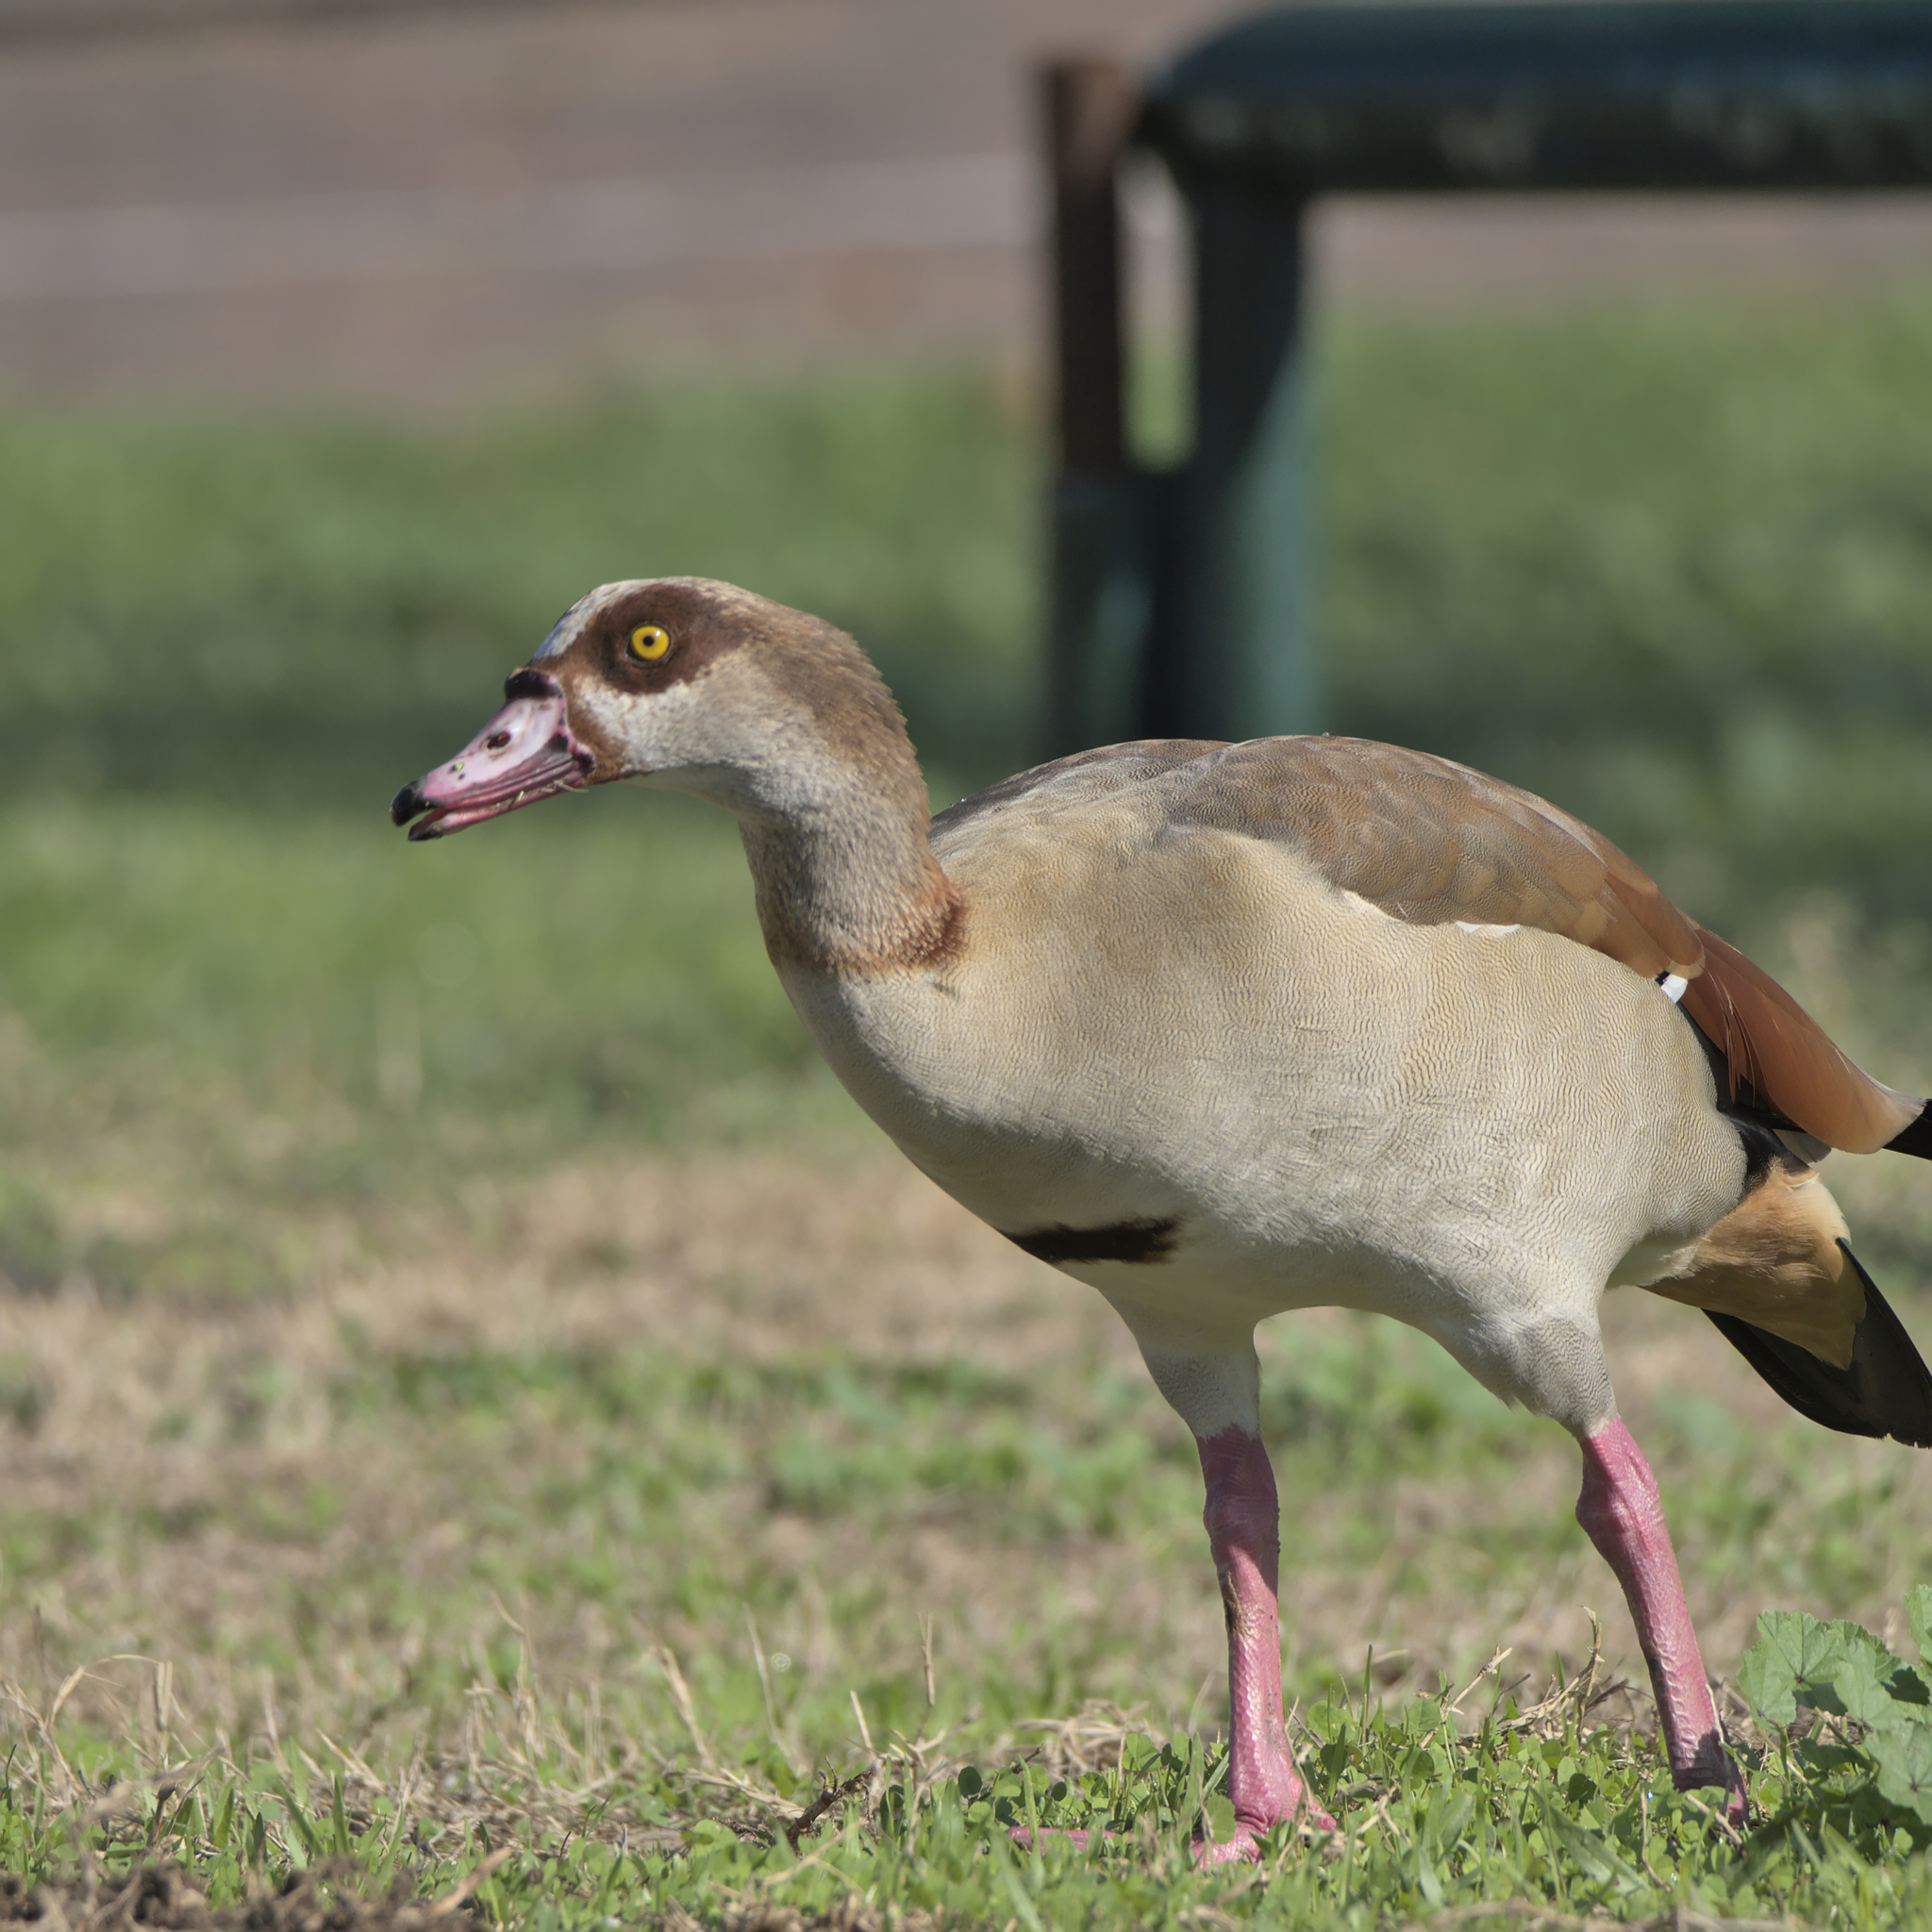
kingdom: Animalia
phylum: Chordata
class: Aves
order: Anseriformes
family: Anatidae
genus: Alopochen
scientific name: Alopochen aegyptiaca
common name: Egyptian goose
